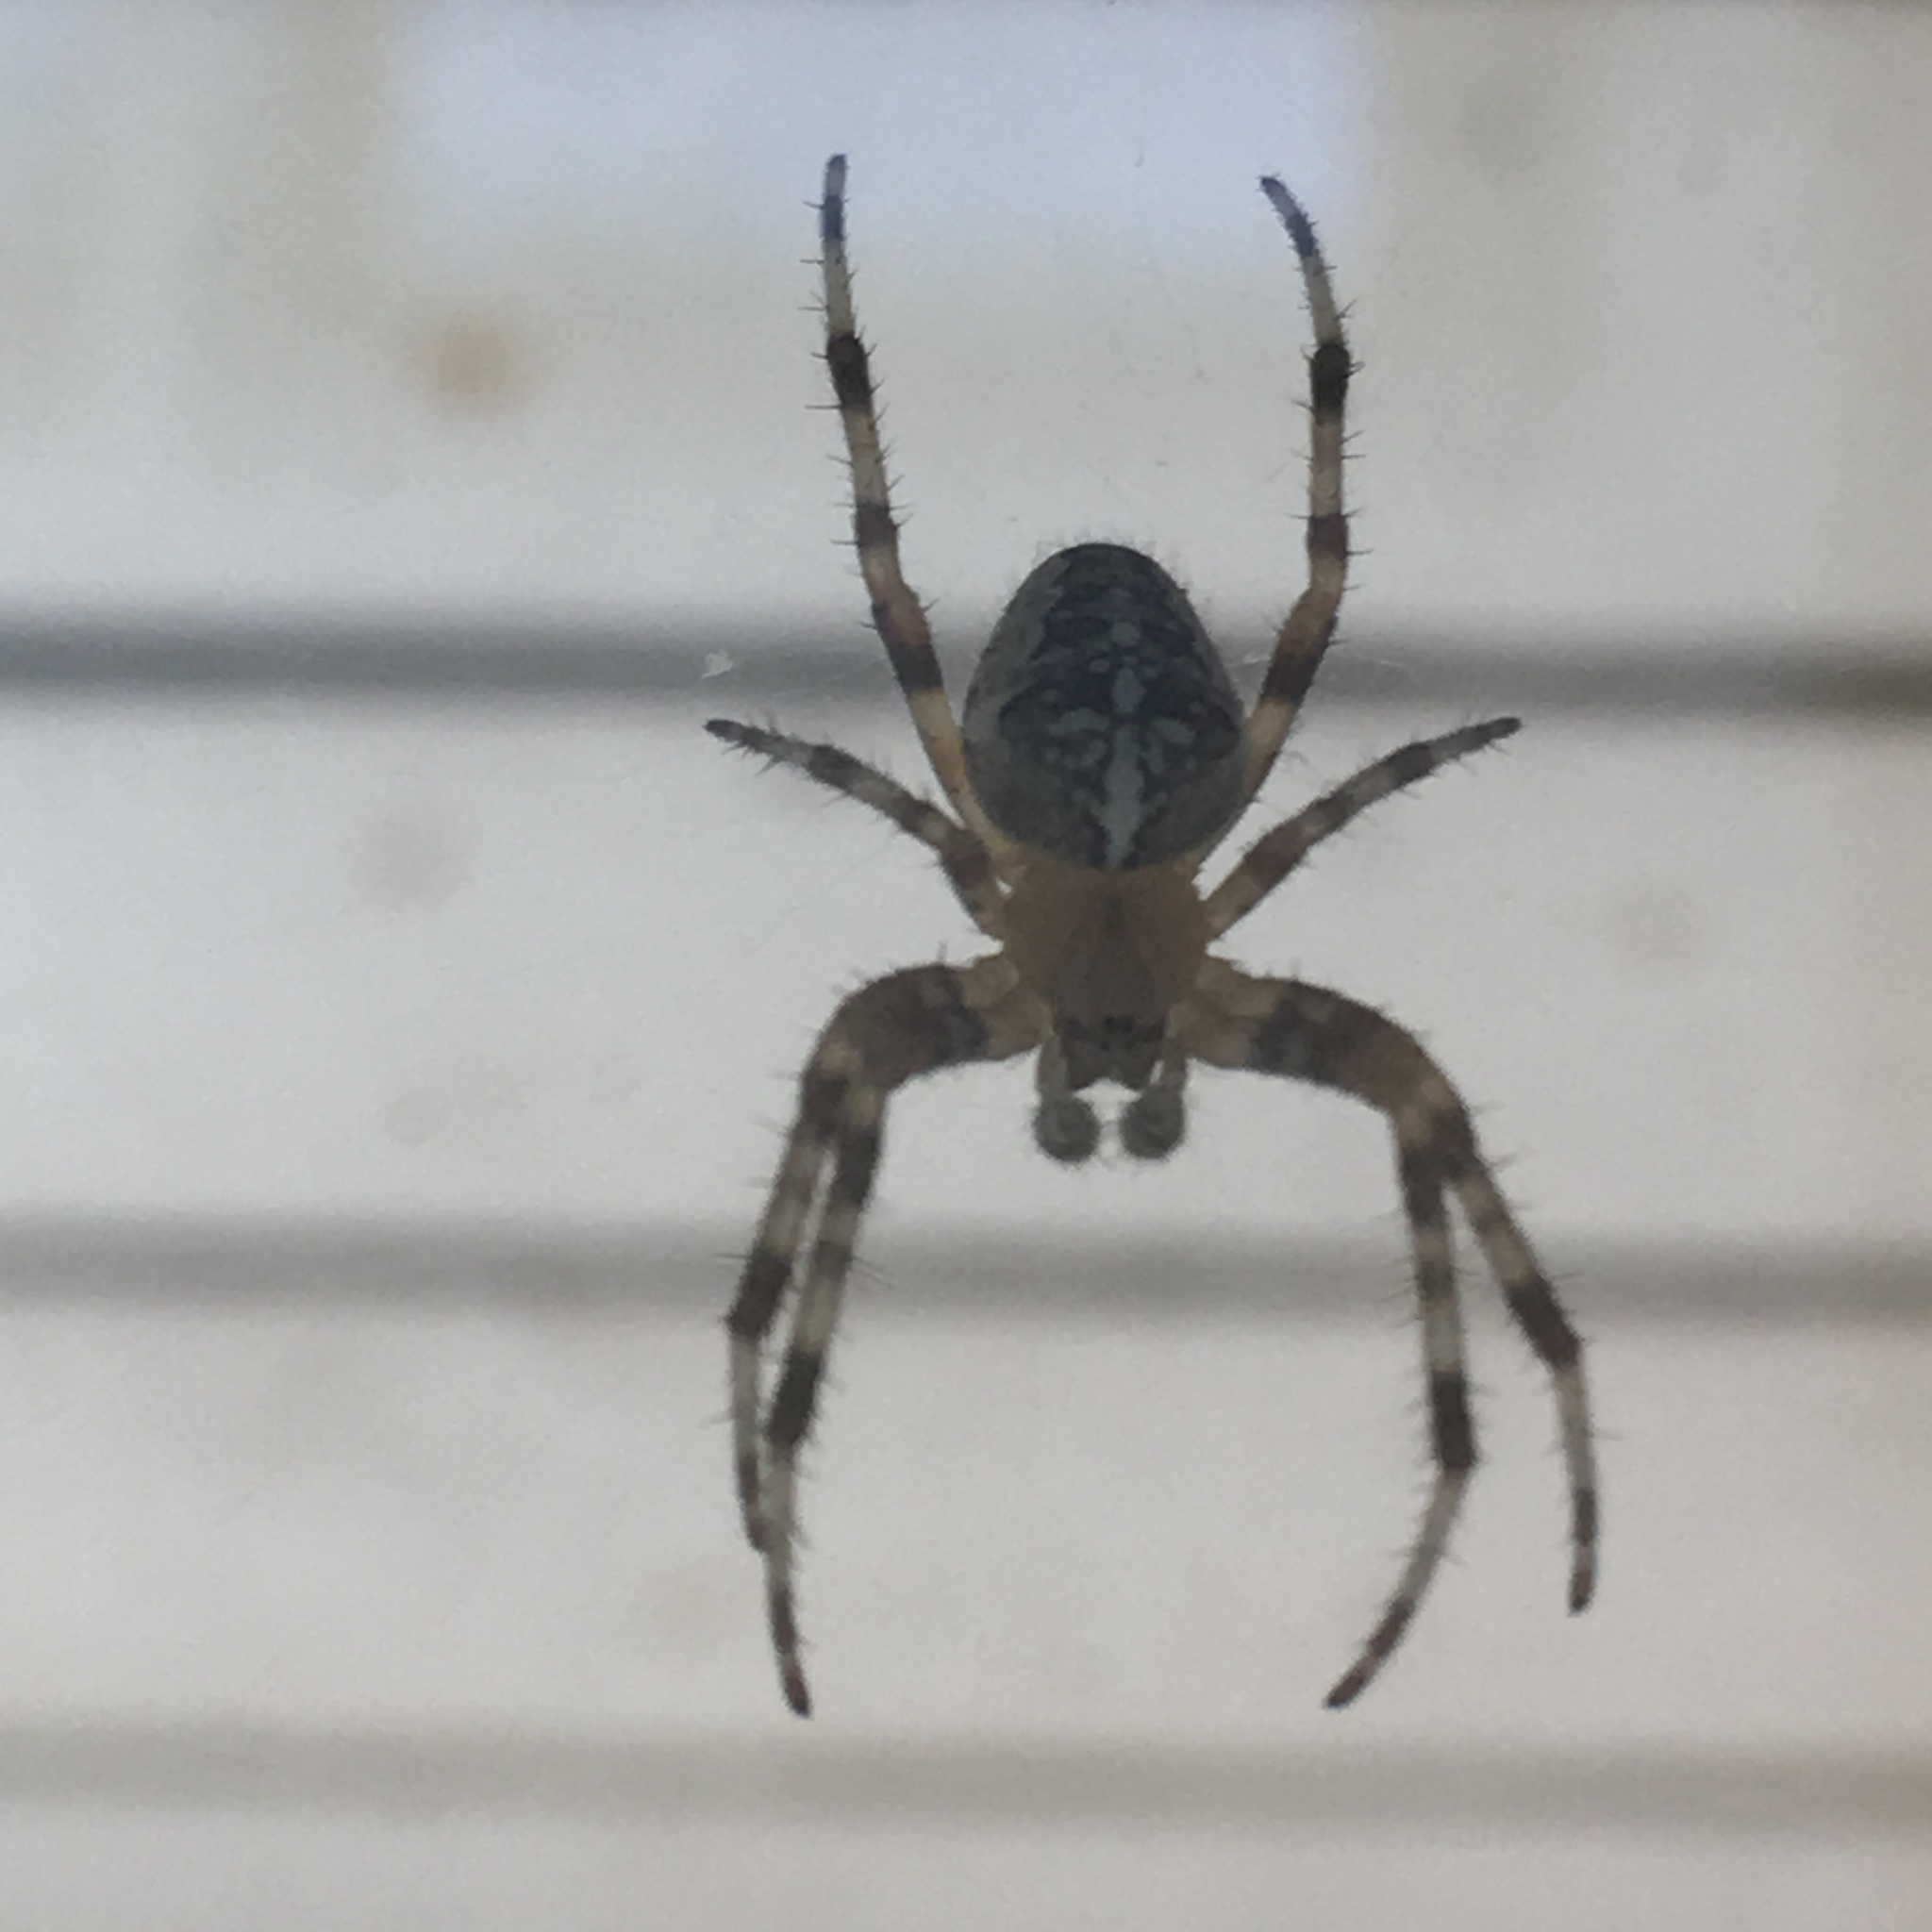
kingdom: Animalia
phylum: Arthropoda
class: Arachnida
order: Araneae
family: Araneidae
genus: Araneus
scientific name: Araneus diadematus
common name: Cross orbweaver
